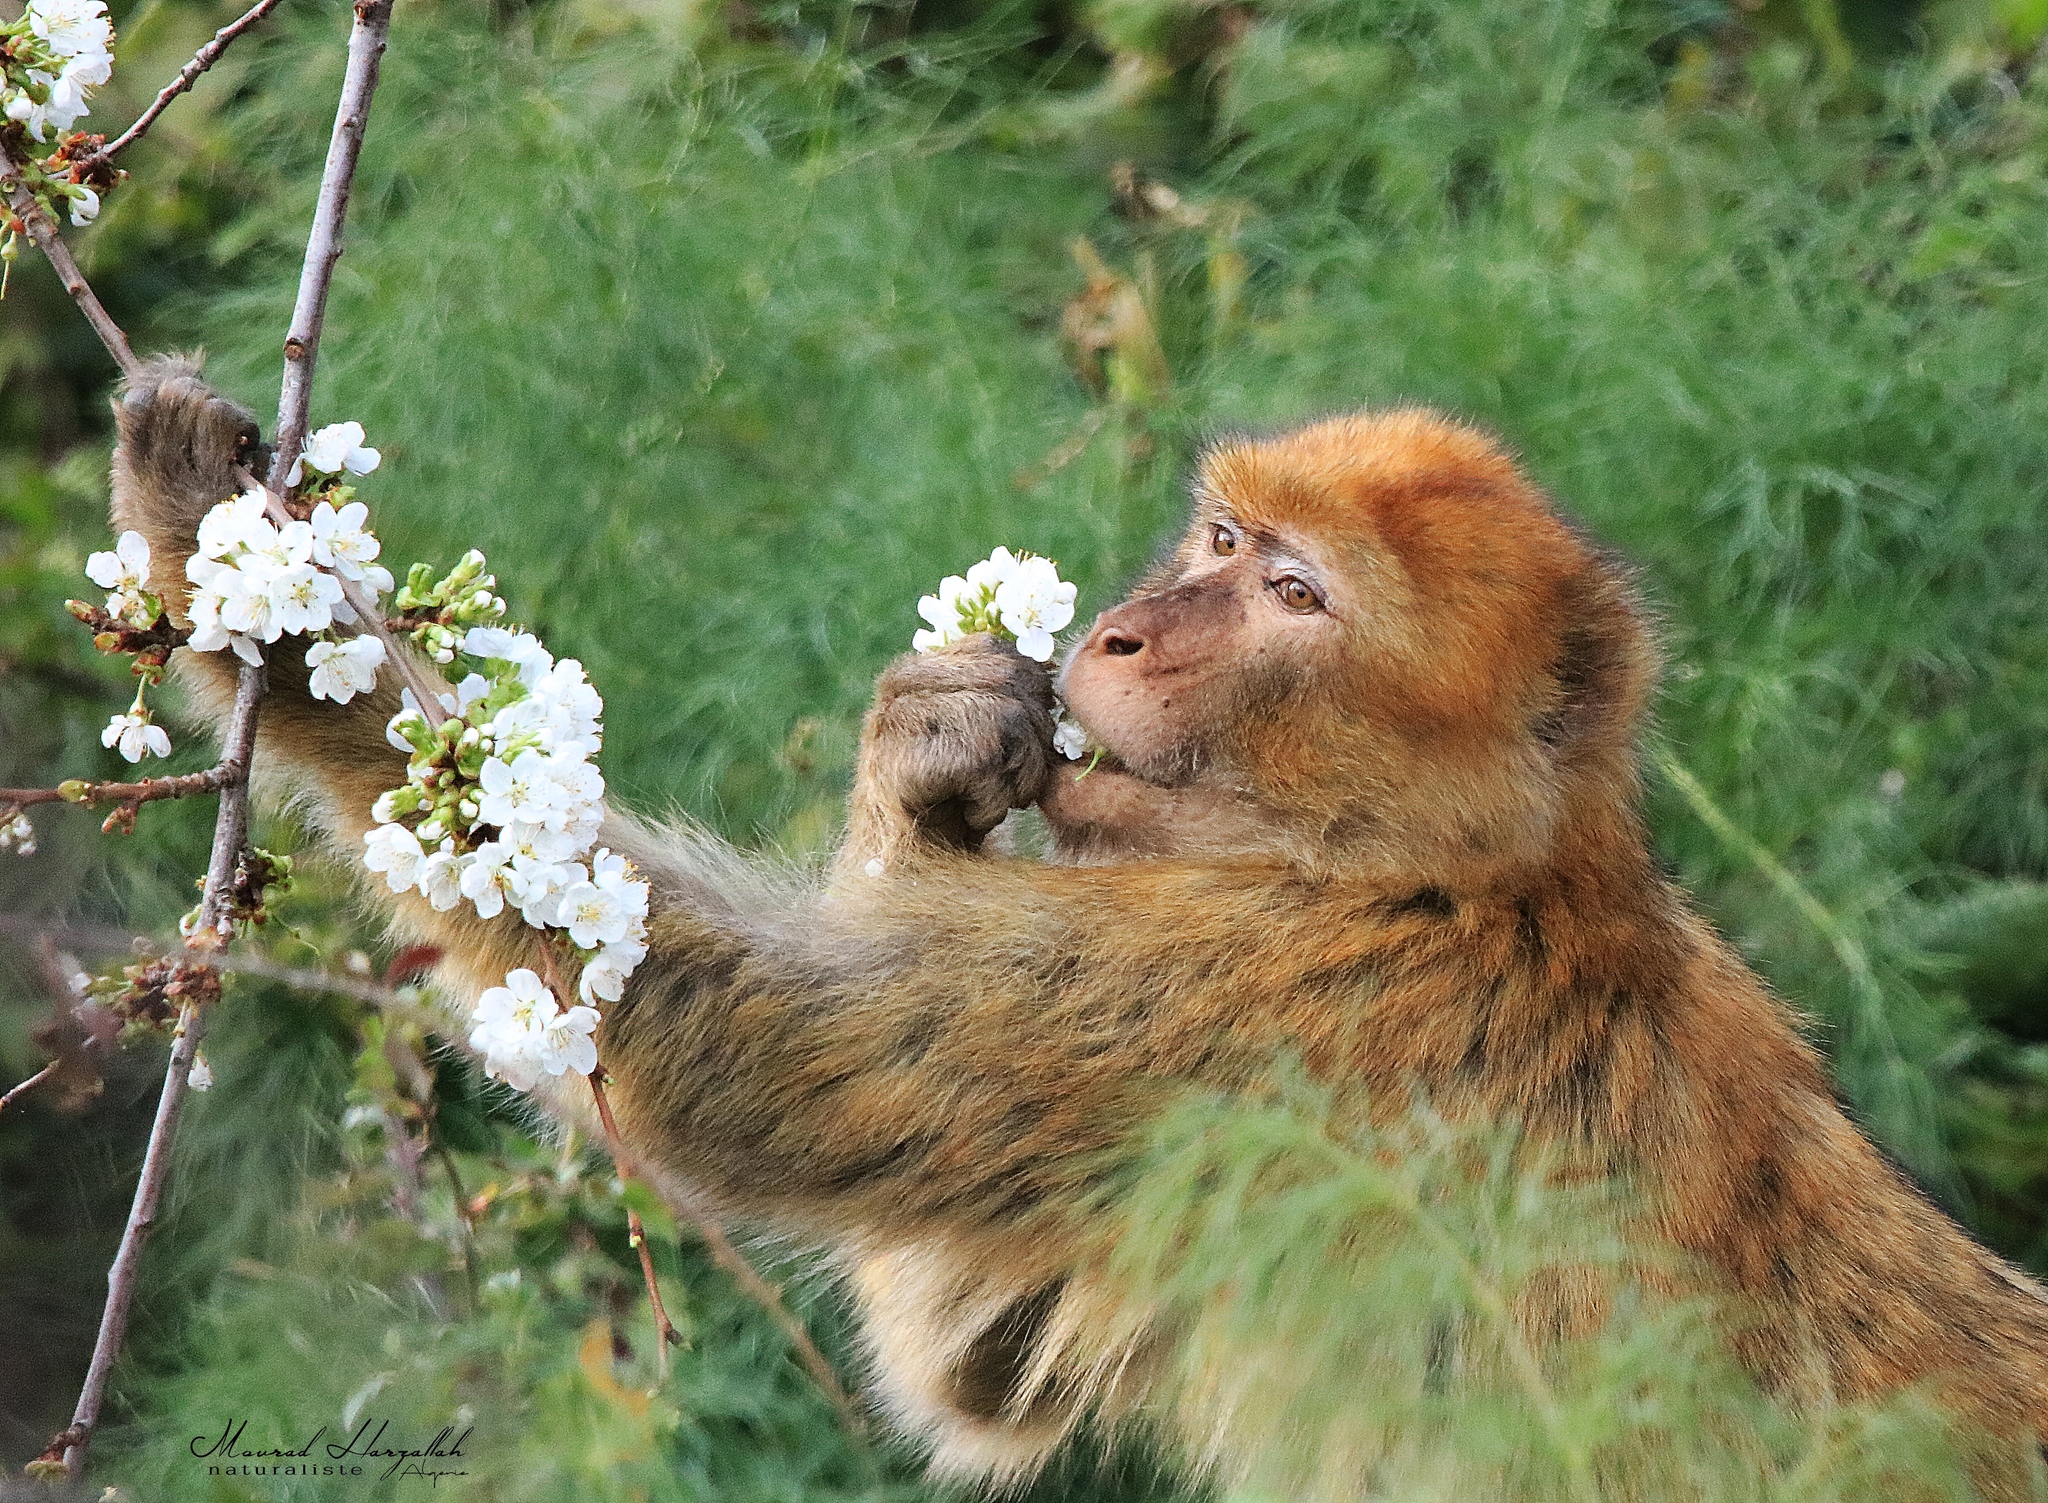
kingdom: Animalia
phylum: Chordata
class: Mammalia
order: Primates
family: Cercopithecidae
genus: Macaca
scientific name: Macaca sylvanus
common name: Barbary macaque
